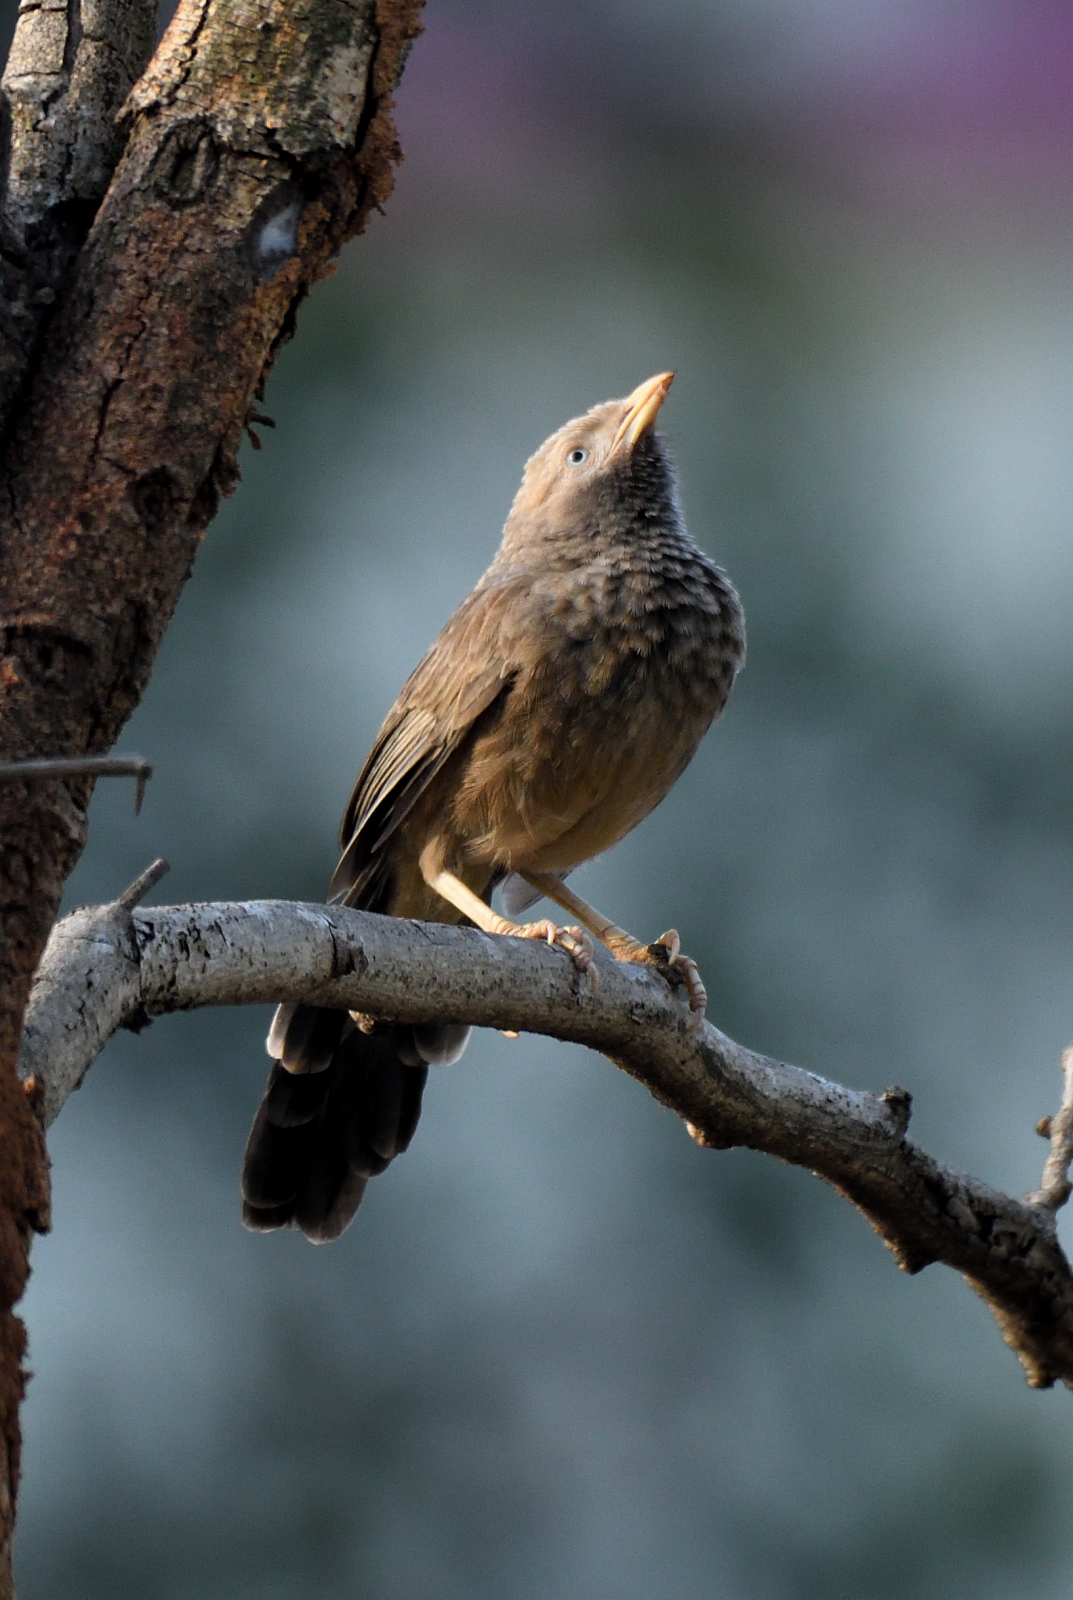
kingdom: Animalia
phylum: Chordata
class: Aves
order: Passeriformes
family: Leiothrichidae
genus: Turdoides
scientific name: Turdoides affinis
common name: Yellow-billed babbler
